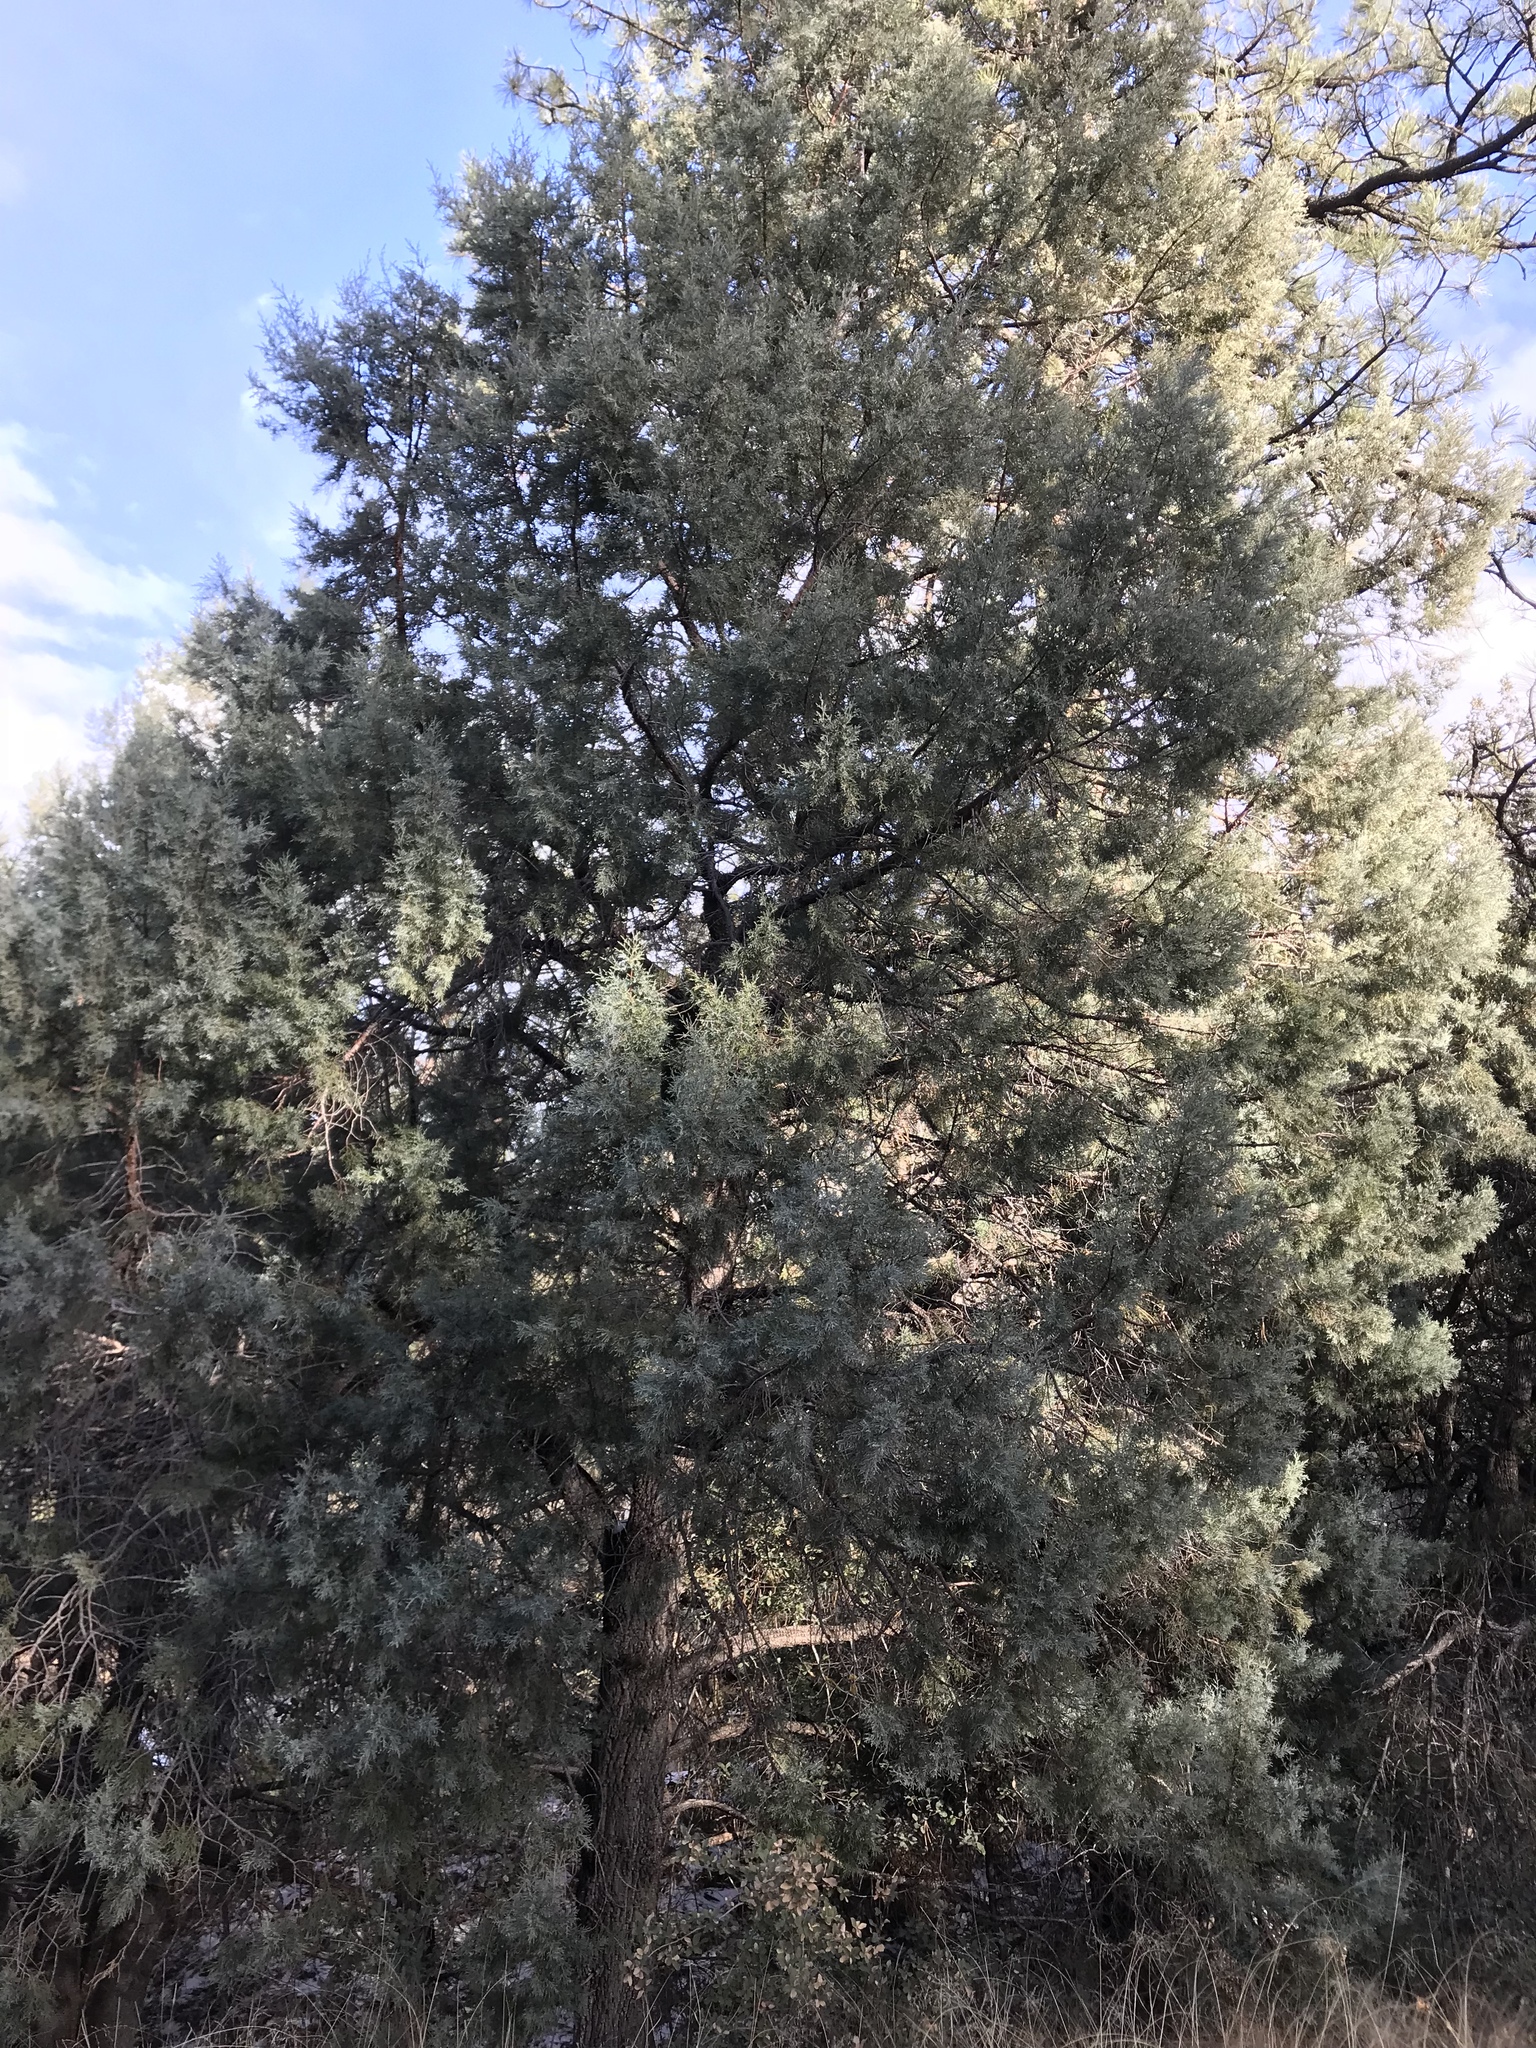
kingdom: Plantae
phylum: Tracheophyta
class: Pinopsida
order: Pinales
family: Cupressaceae
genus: Juniperus
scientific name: Juniperus deppeana
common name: Alligator juniper
